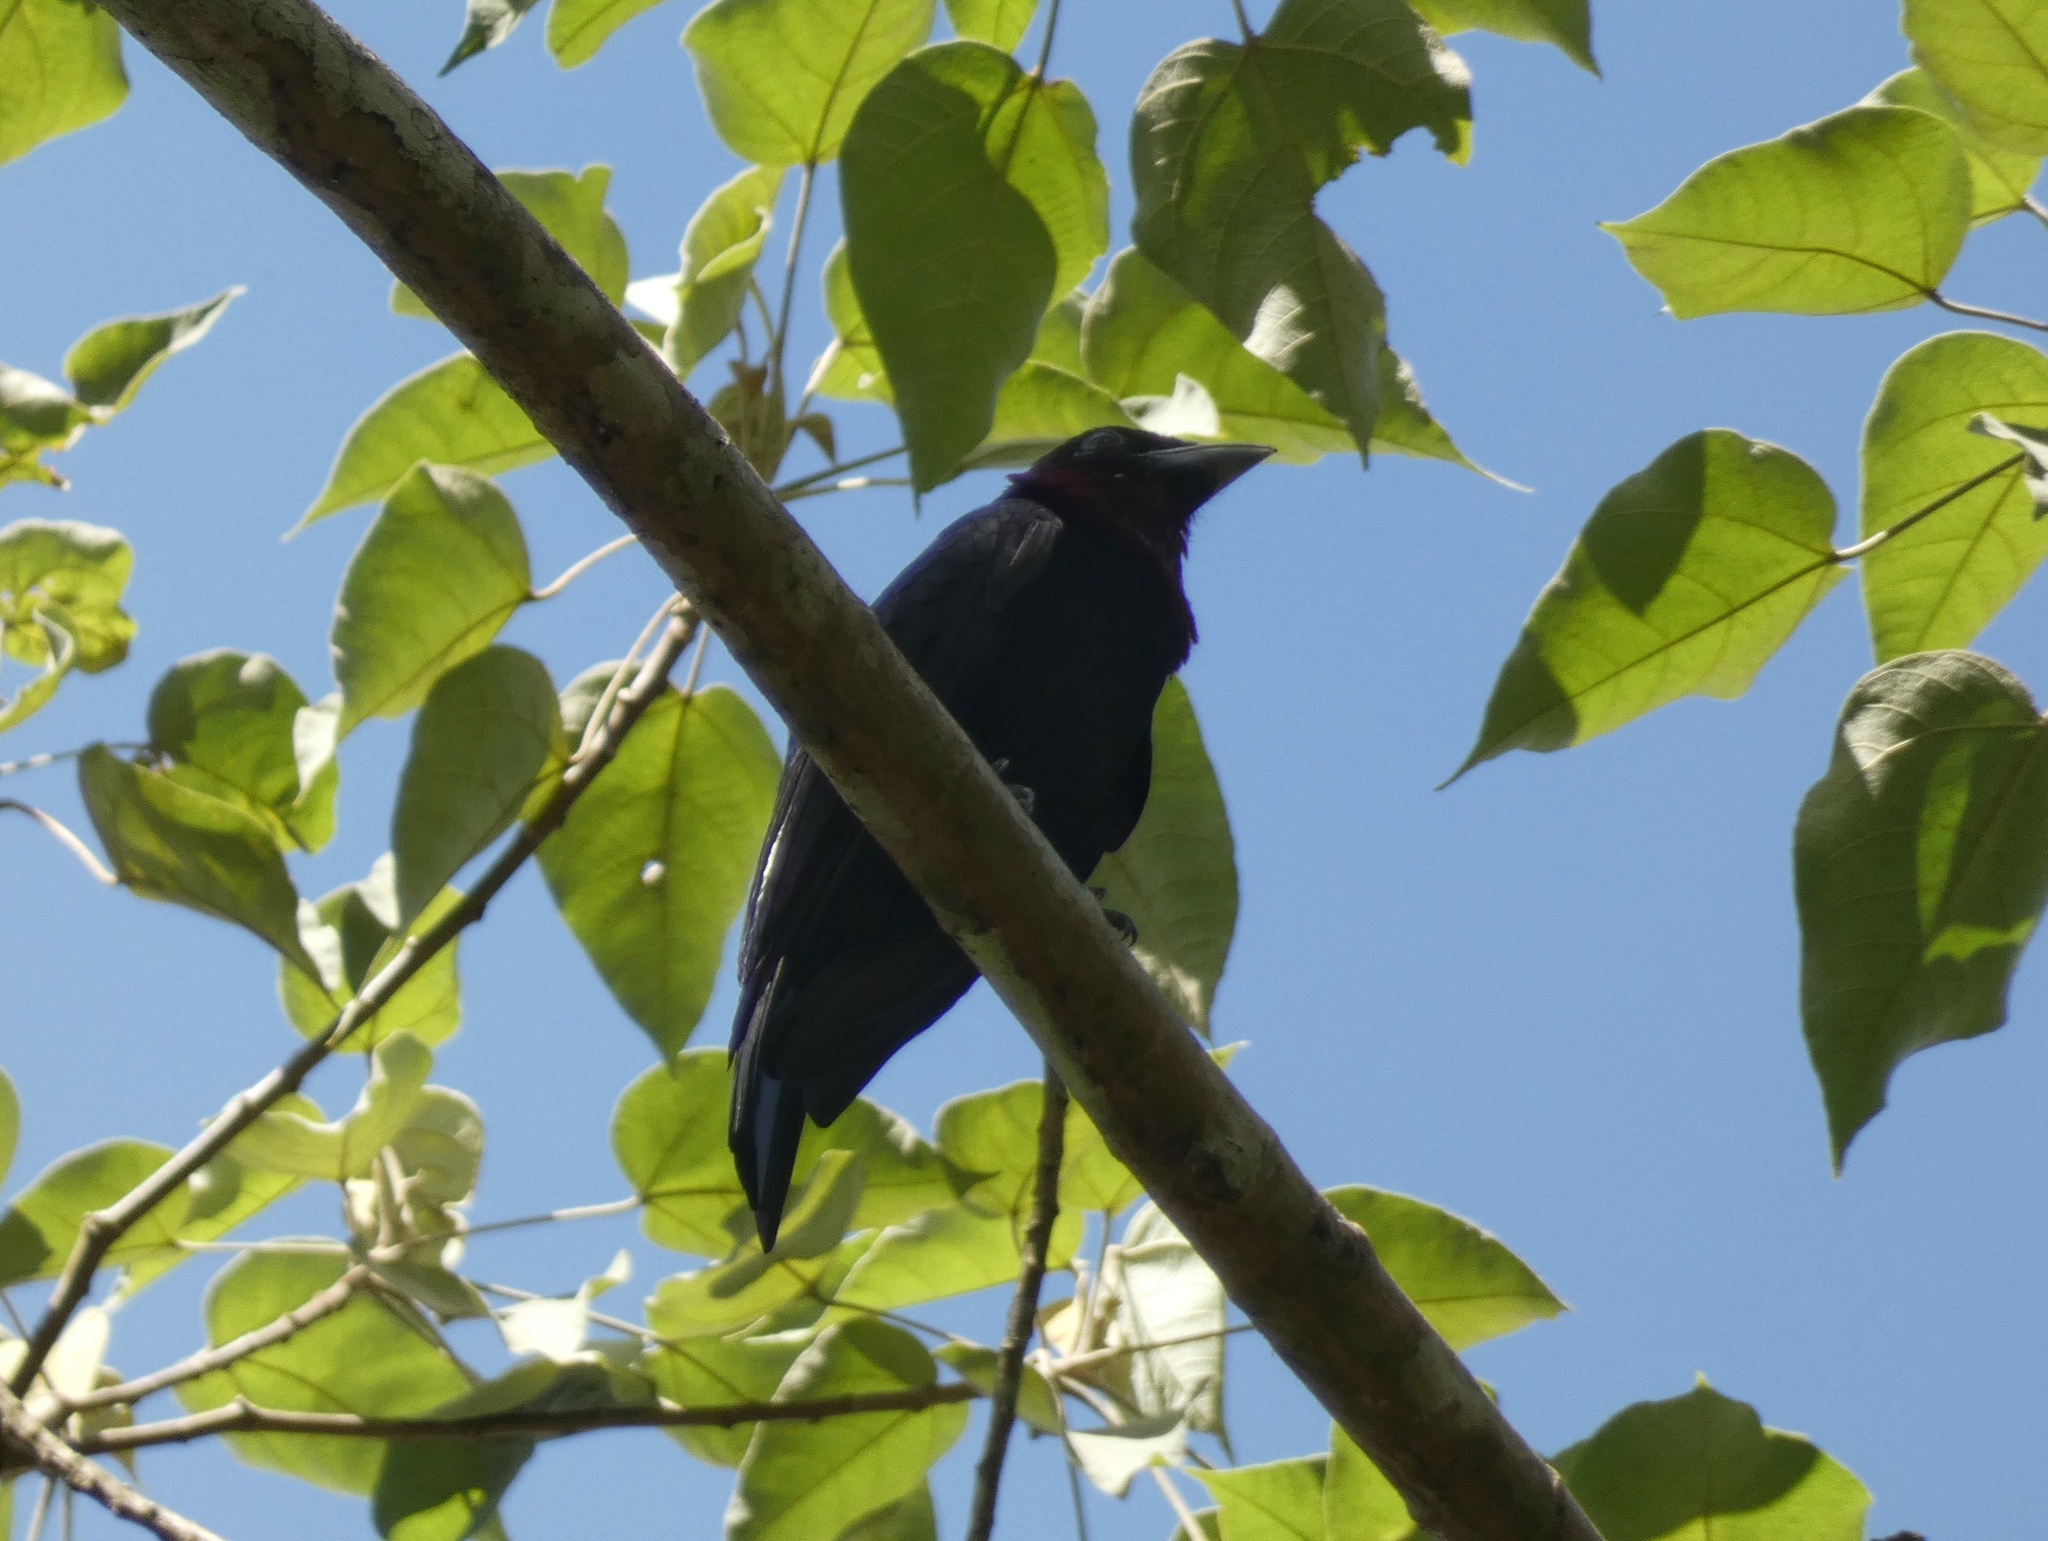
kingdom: Animalia
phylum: Chordata
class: Aves
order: Passeriformes
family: Cotingidae
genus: Querula
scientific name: Querula purpurata
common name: Purple-throated fruitcrow
